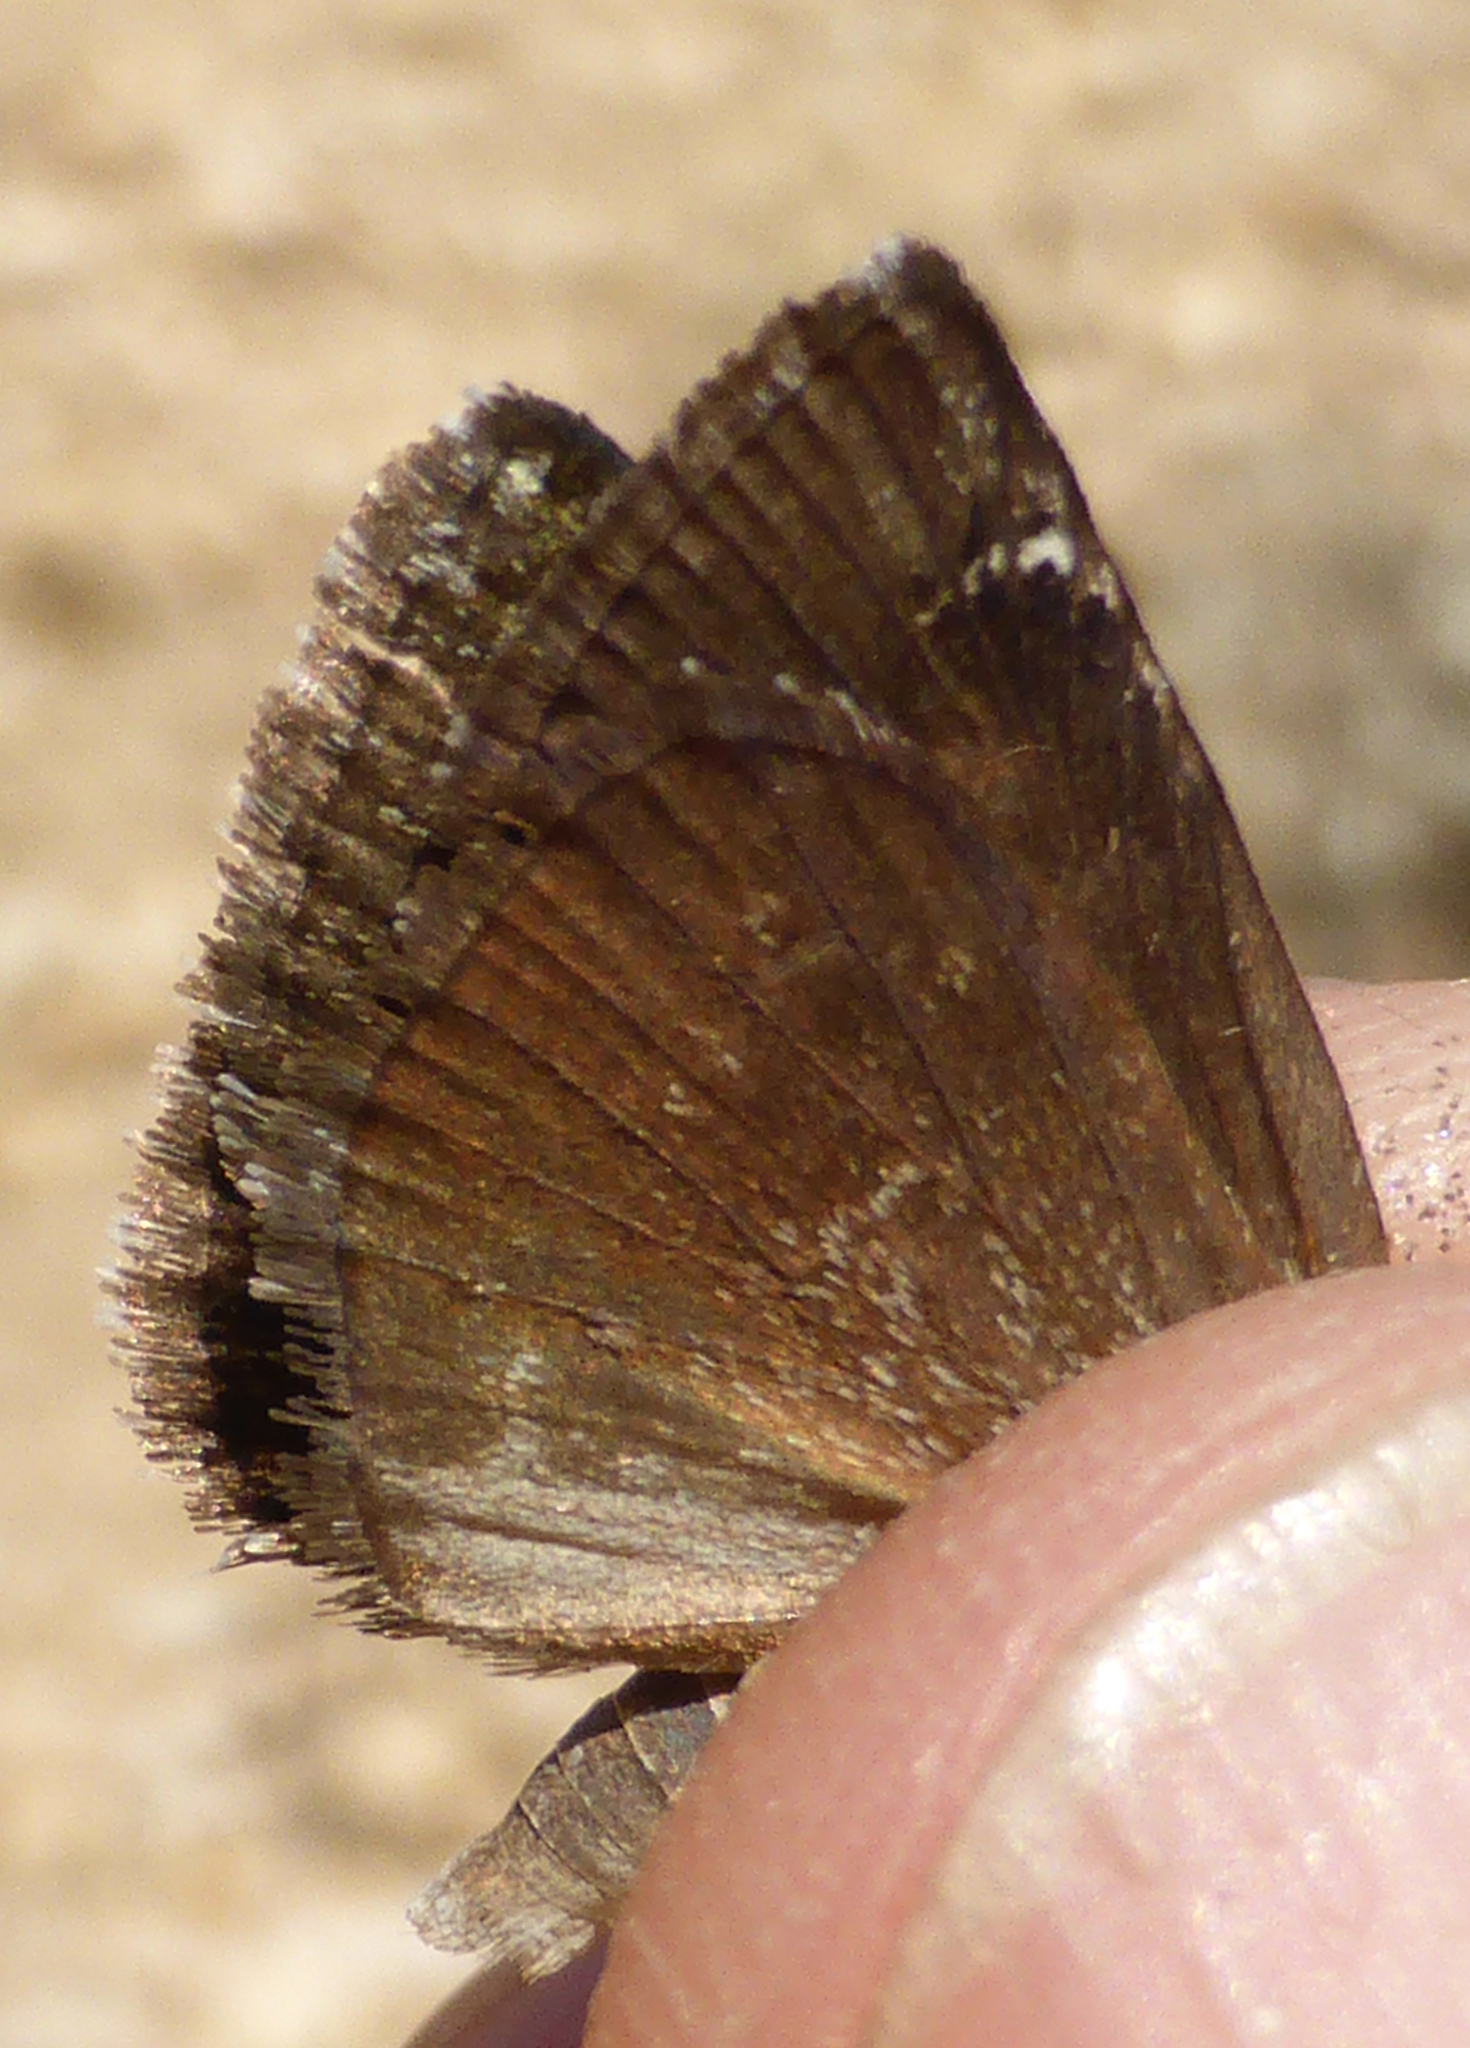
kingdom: Animalia
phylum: Arthropoda
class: Insecta
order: Lepidoptera
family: Hesperiidae
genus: Erynnis
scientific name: Erynnis marloyi
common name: Inky skipper
